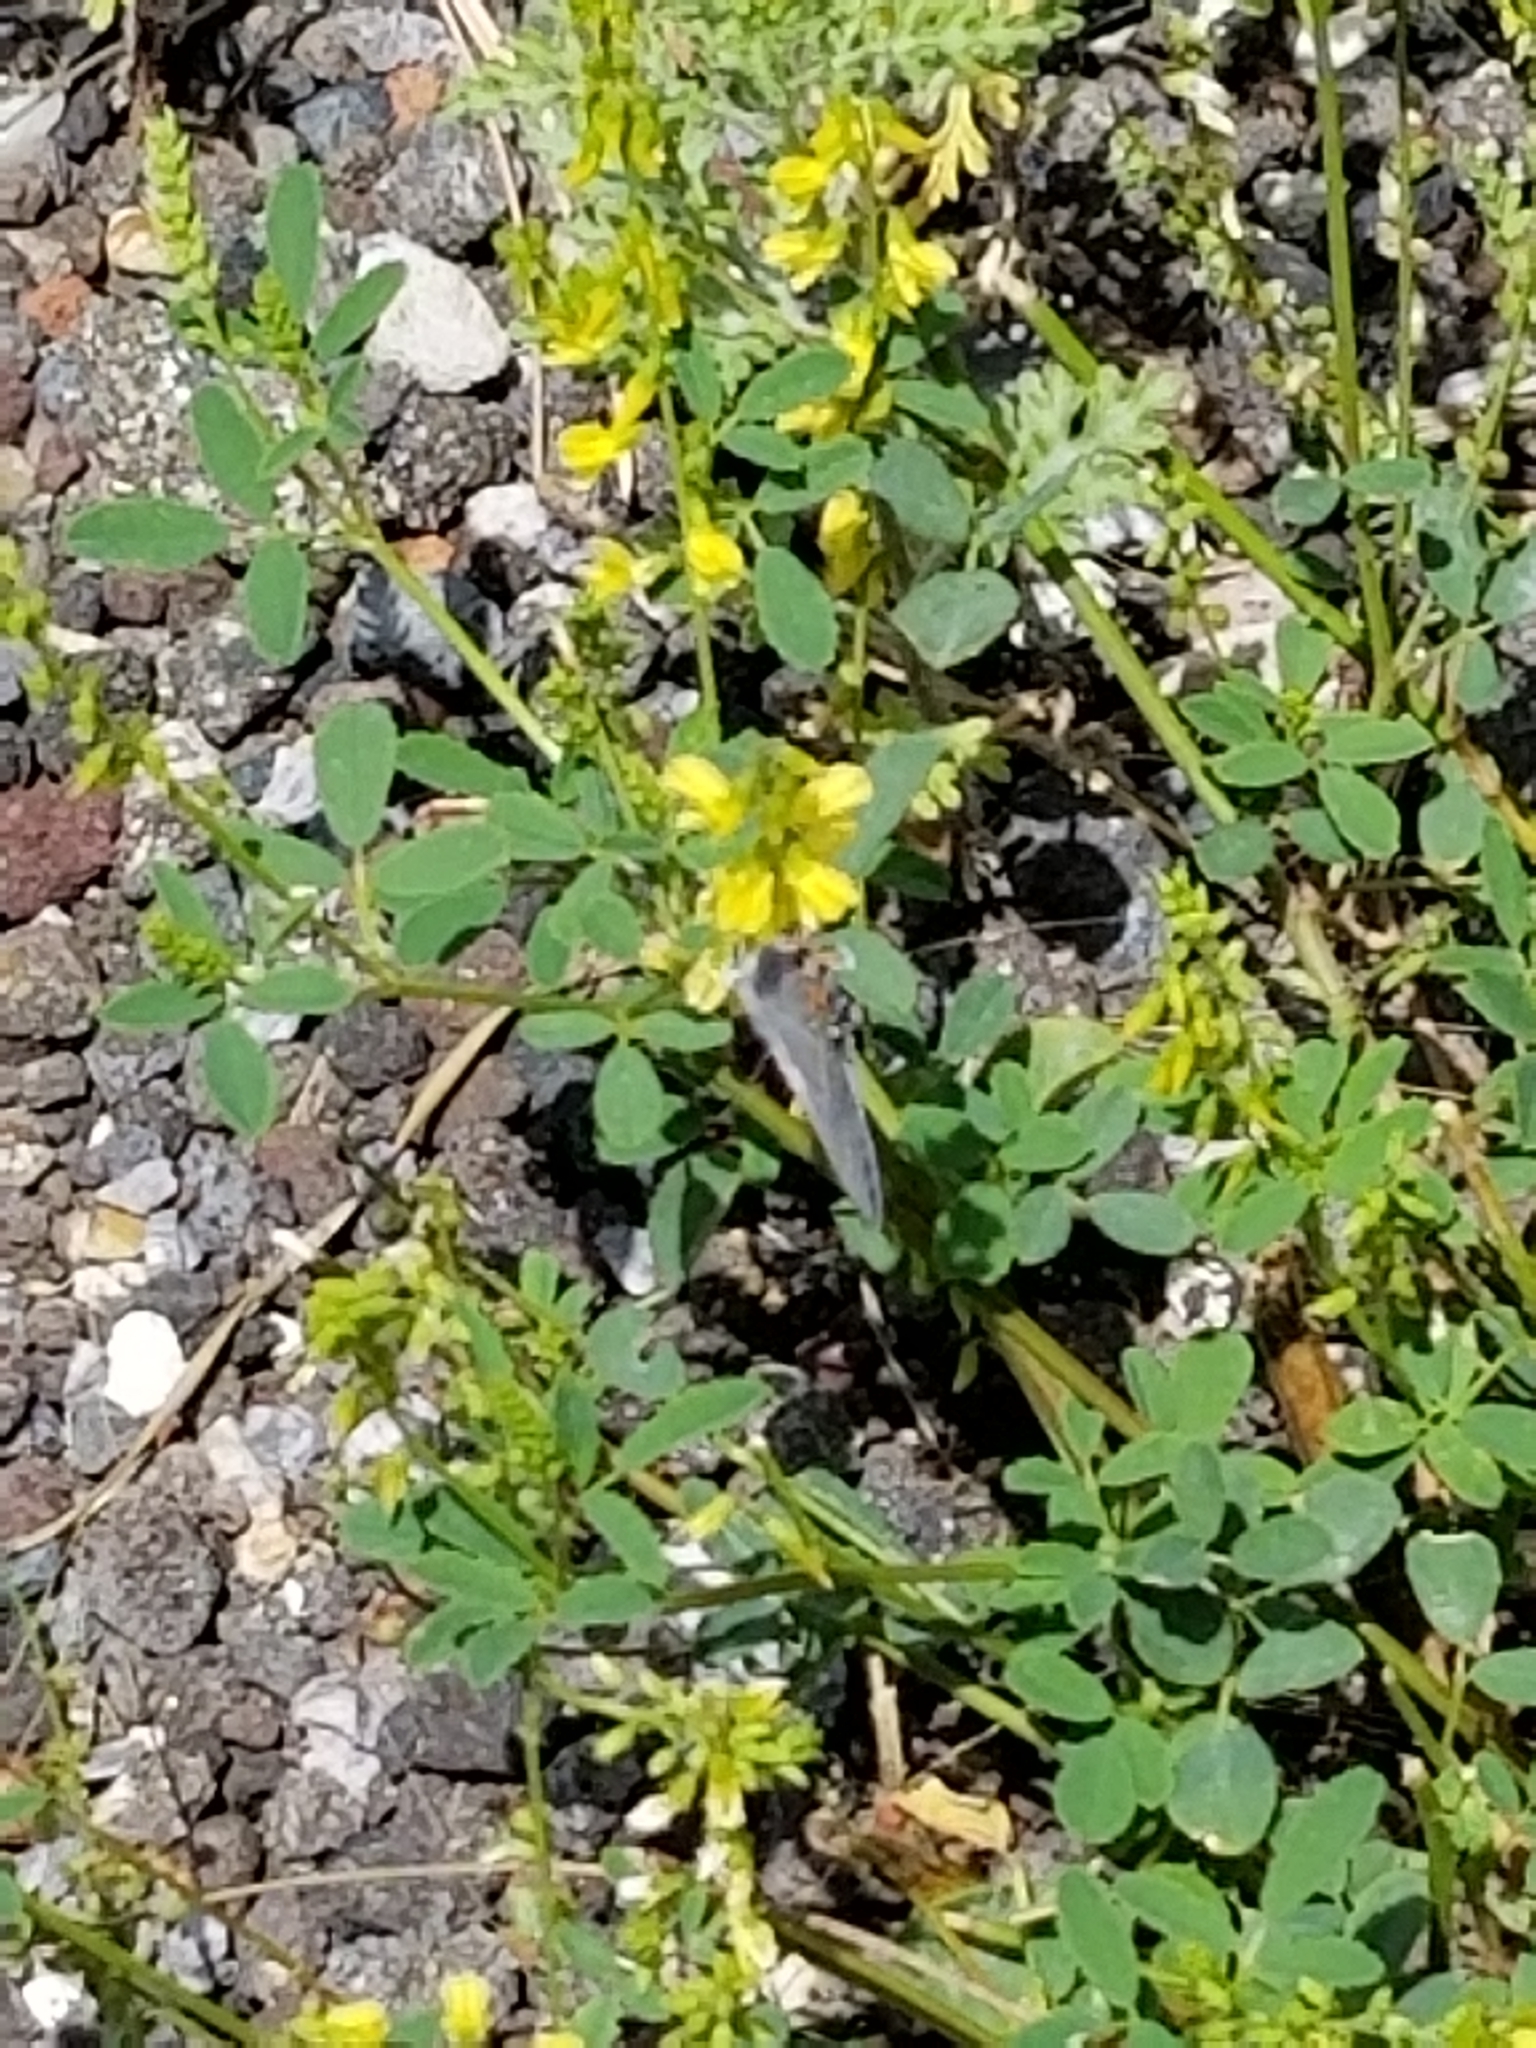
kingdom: Animalia
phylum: Arthropoda
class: Insecta
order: Lepidoptera
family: Lycaenidae
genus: Strymon
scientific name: Strymon melinus
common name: Gray hairstreak
